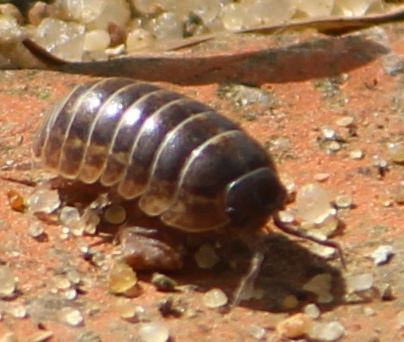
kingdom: Animalia
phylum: Arthropoda
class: Malacostraca
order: Isopoda
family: Armadillidiidae
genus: Armadillidium
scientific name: Armadillidium vulgare
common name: Common pill woodlouse
